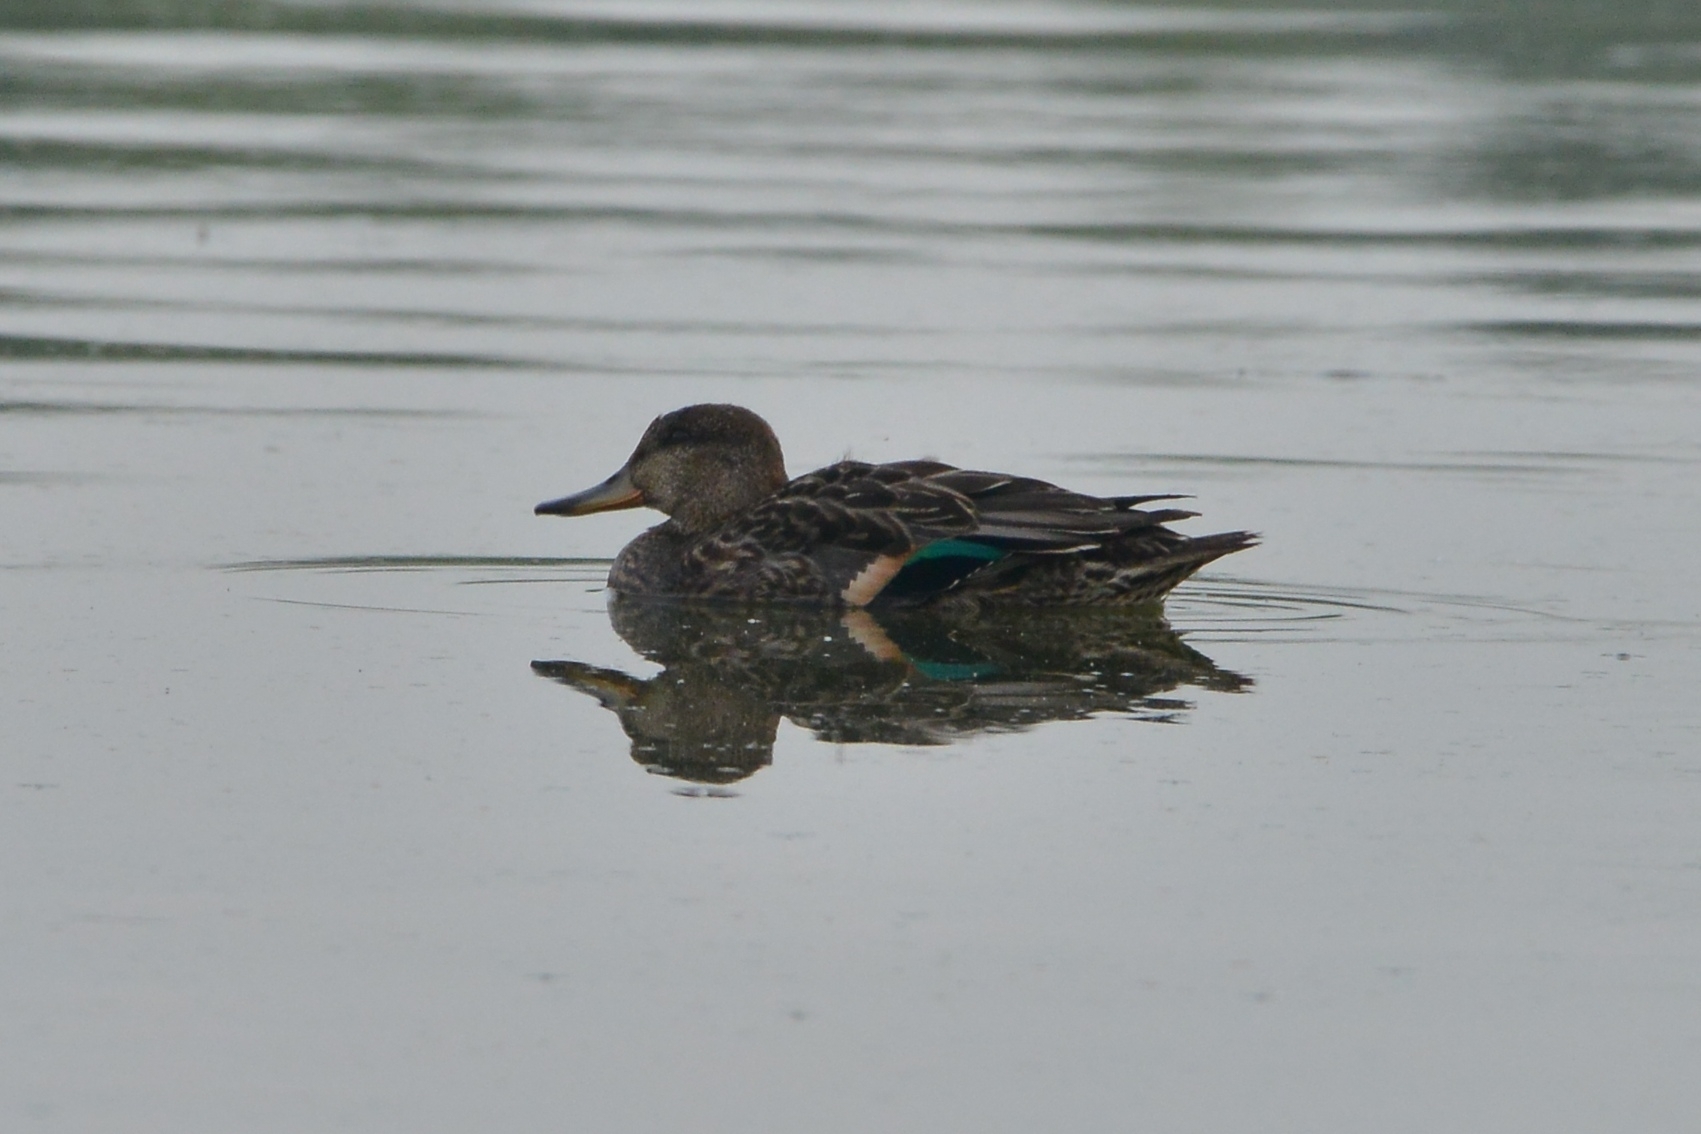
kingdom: Animalia
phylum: Chordata
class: Aves
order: Anseriformes
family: Anatidae
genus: Anas
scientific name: Anas crecca
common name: Eurasian teal
